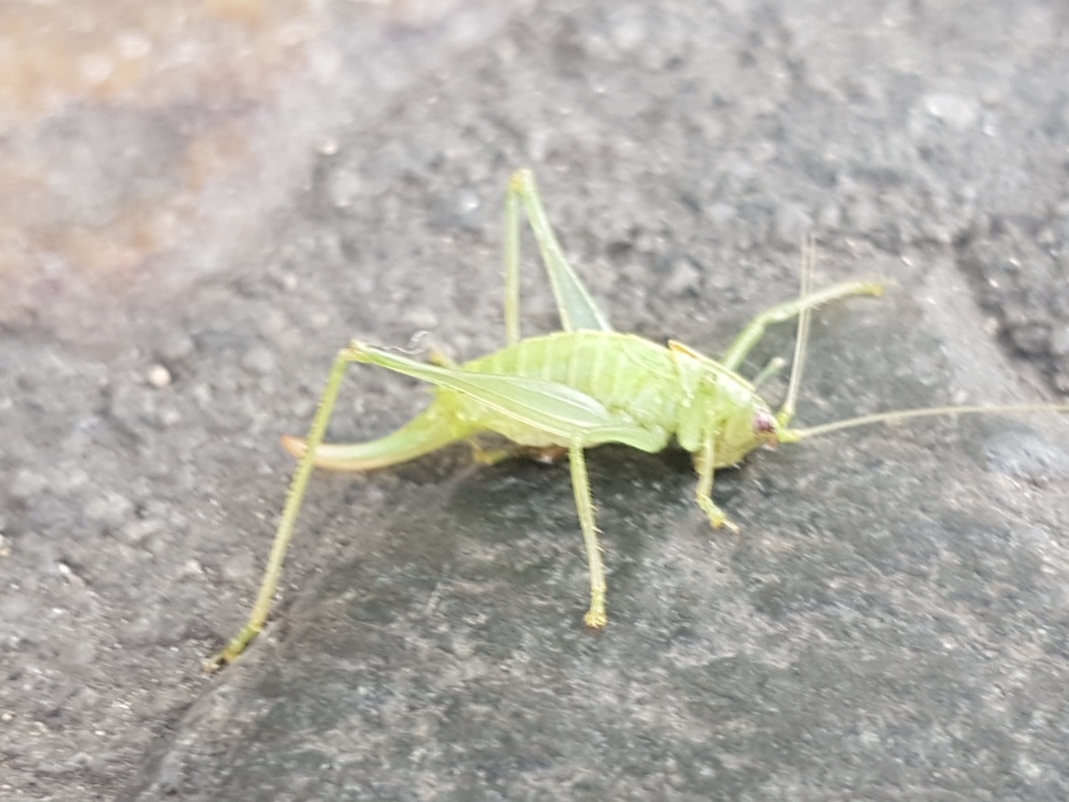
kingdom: Animalia
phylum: Arthropoda
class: Insecta
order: Orthoptera
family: Tettigoniidae
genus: Meconema
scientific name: Meconema meridionale
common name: Southern oak bush-cricket
